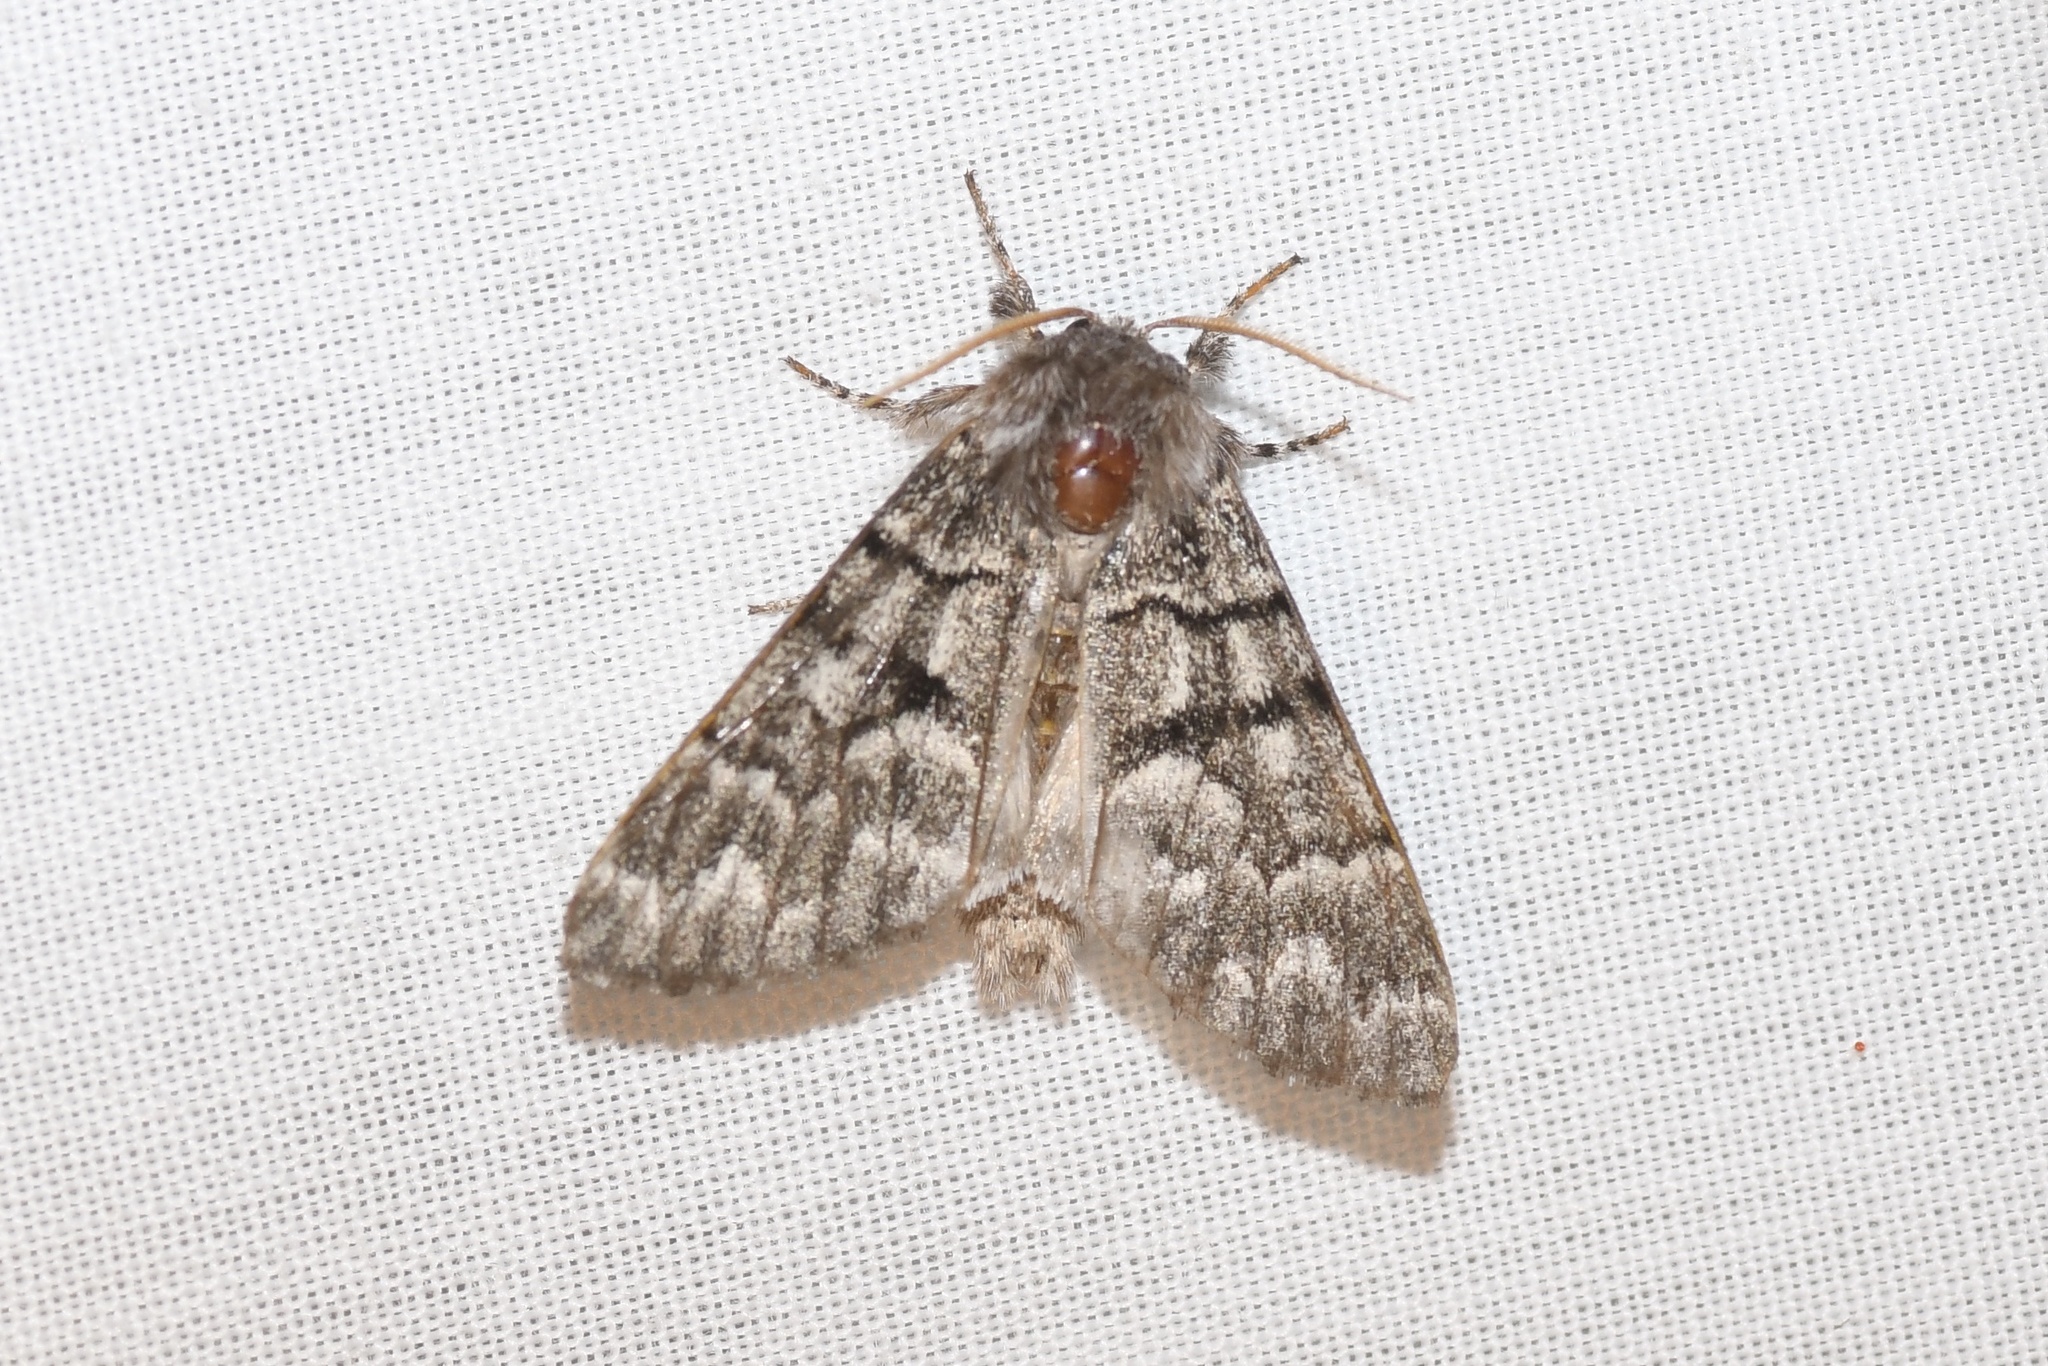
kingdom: Animalia
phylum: Arthropoda
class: Insecta
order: Lepidoptera
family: Noctuidae
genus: Panthea
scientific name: Panthea furcilla
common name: Eastern panthea moth
